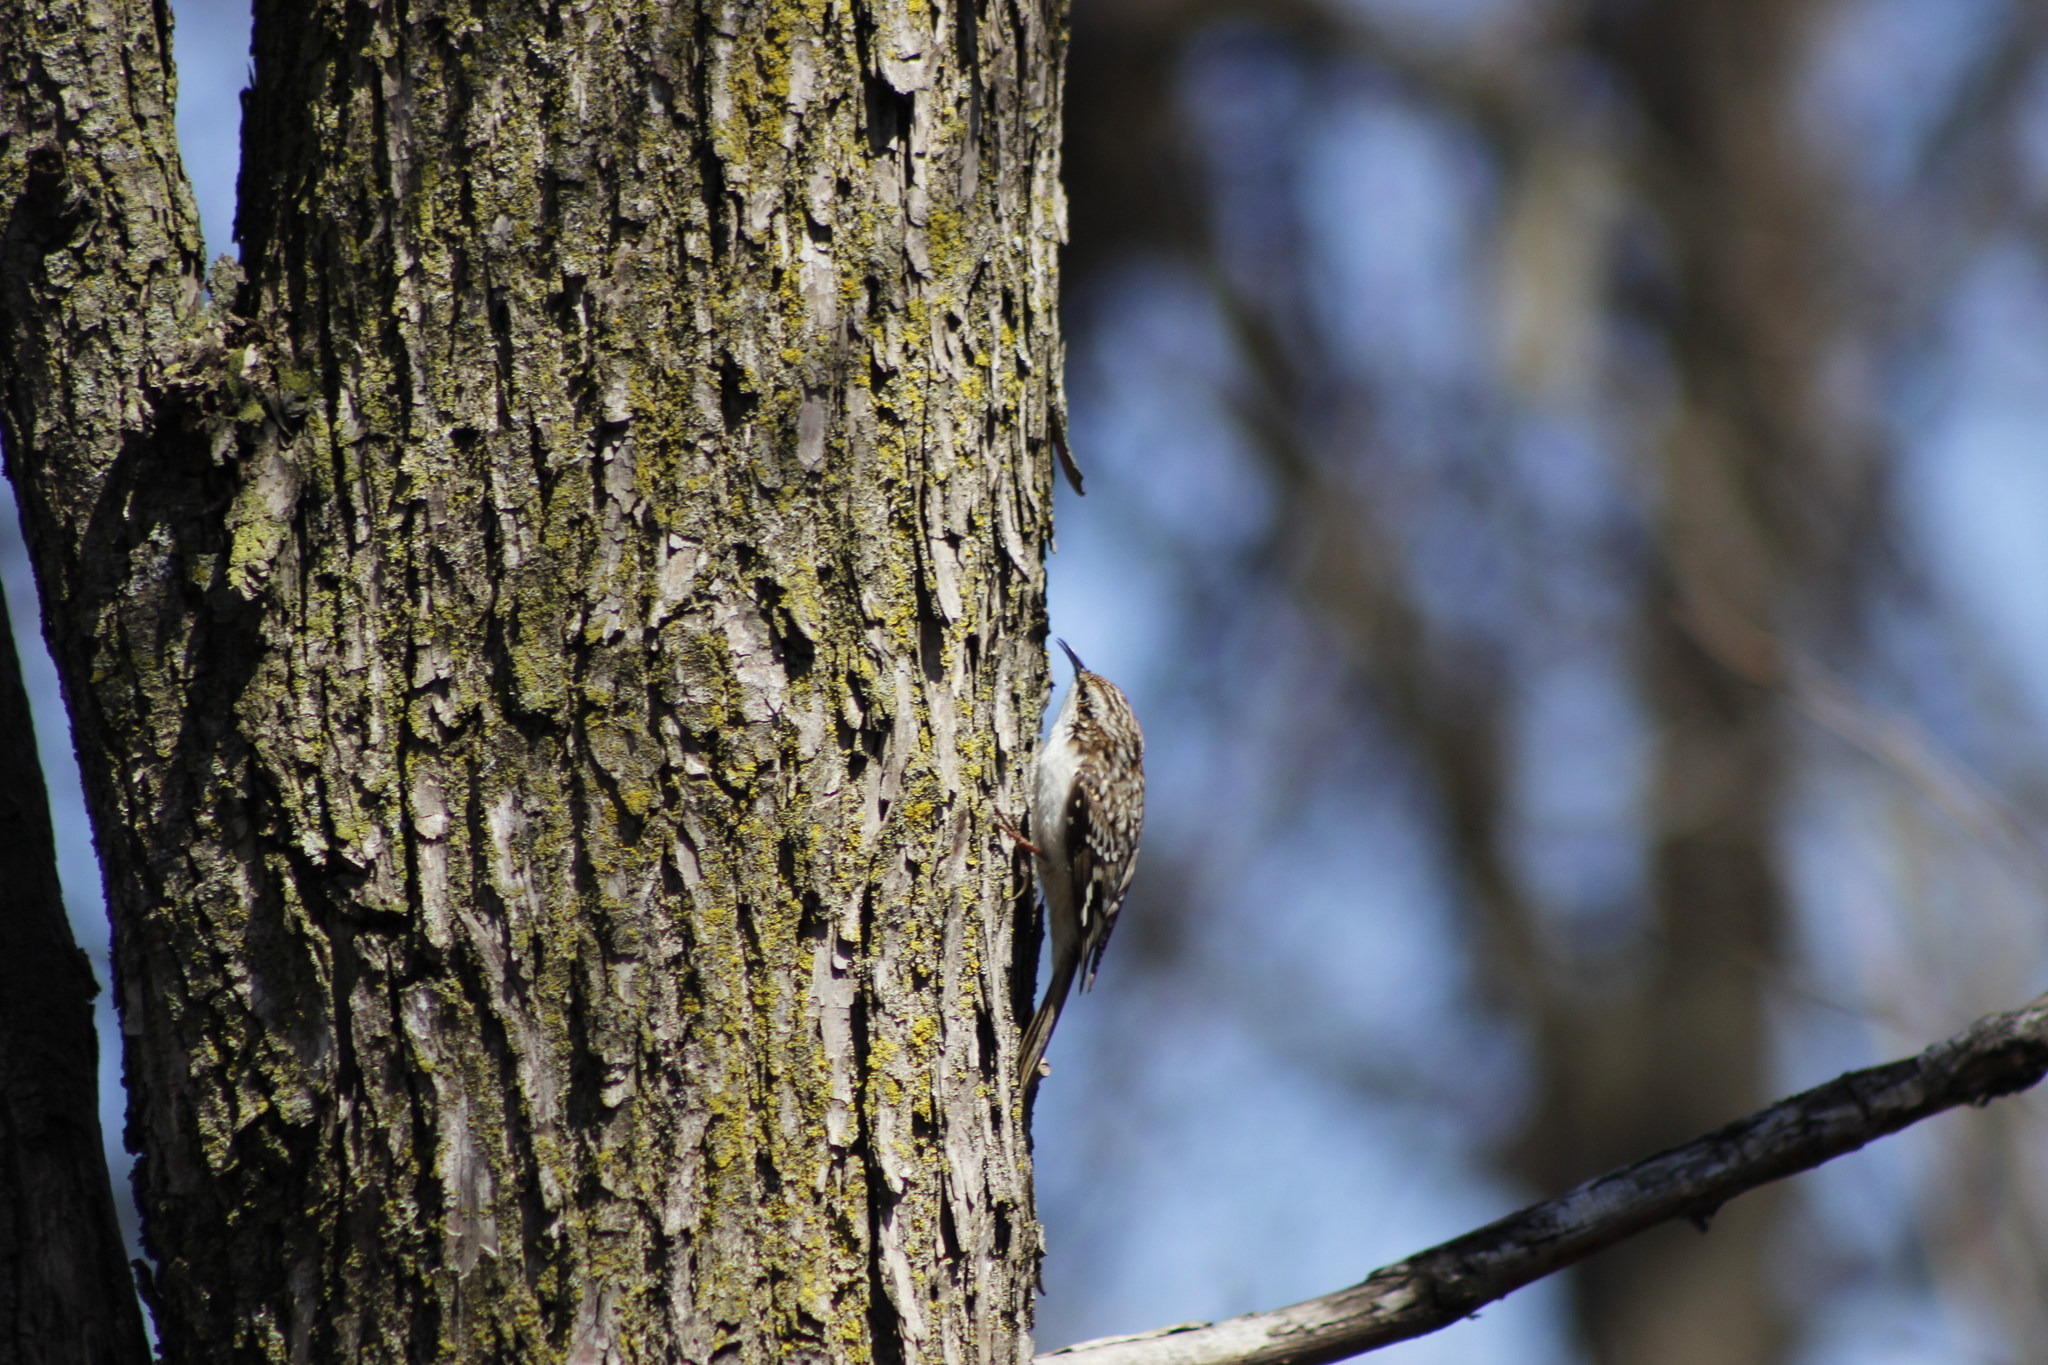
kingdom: Animalia
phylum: Chordata
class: Aves
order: Passeriformes
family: Certhiidae
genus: Certhia
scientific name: Certhia americana
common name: Brown creeper
